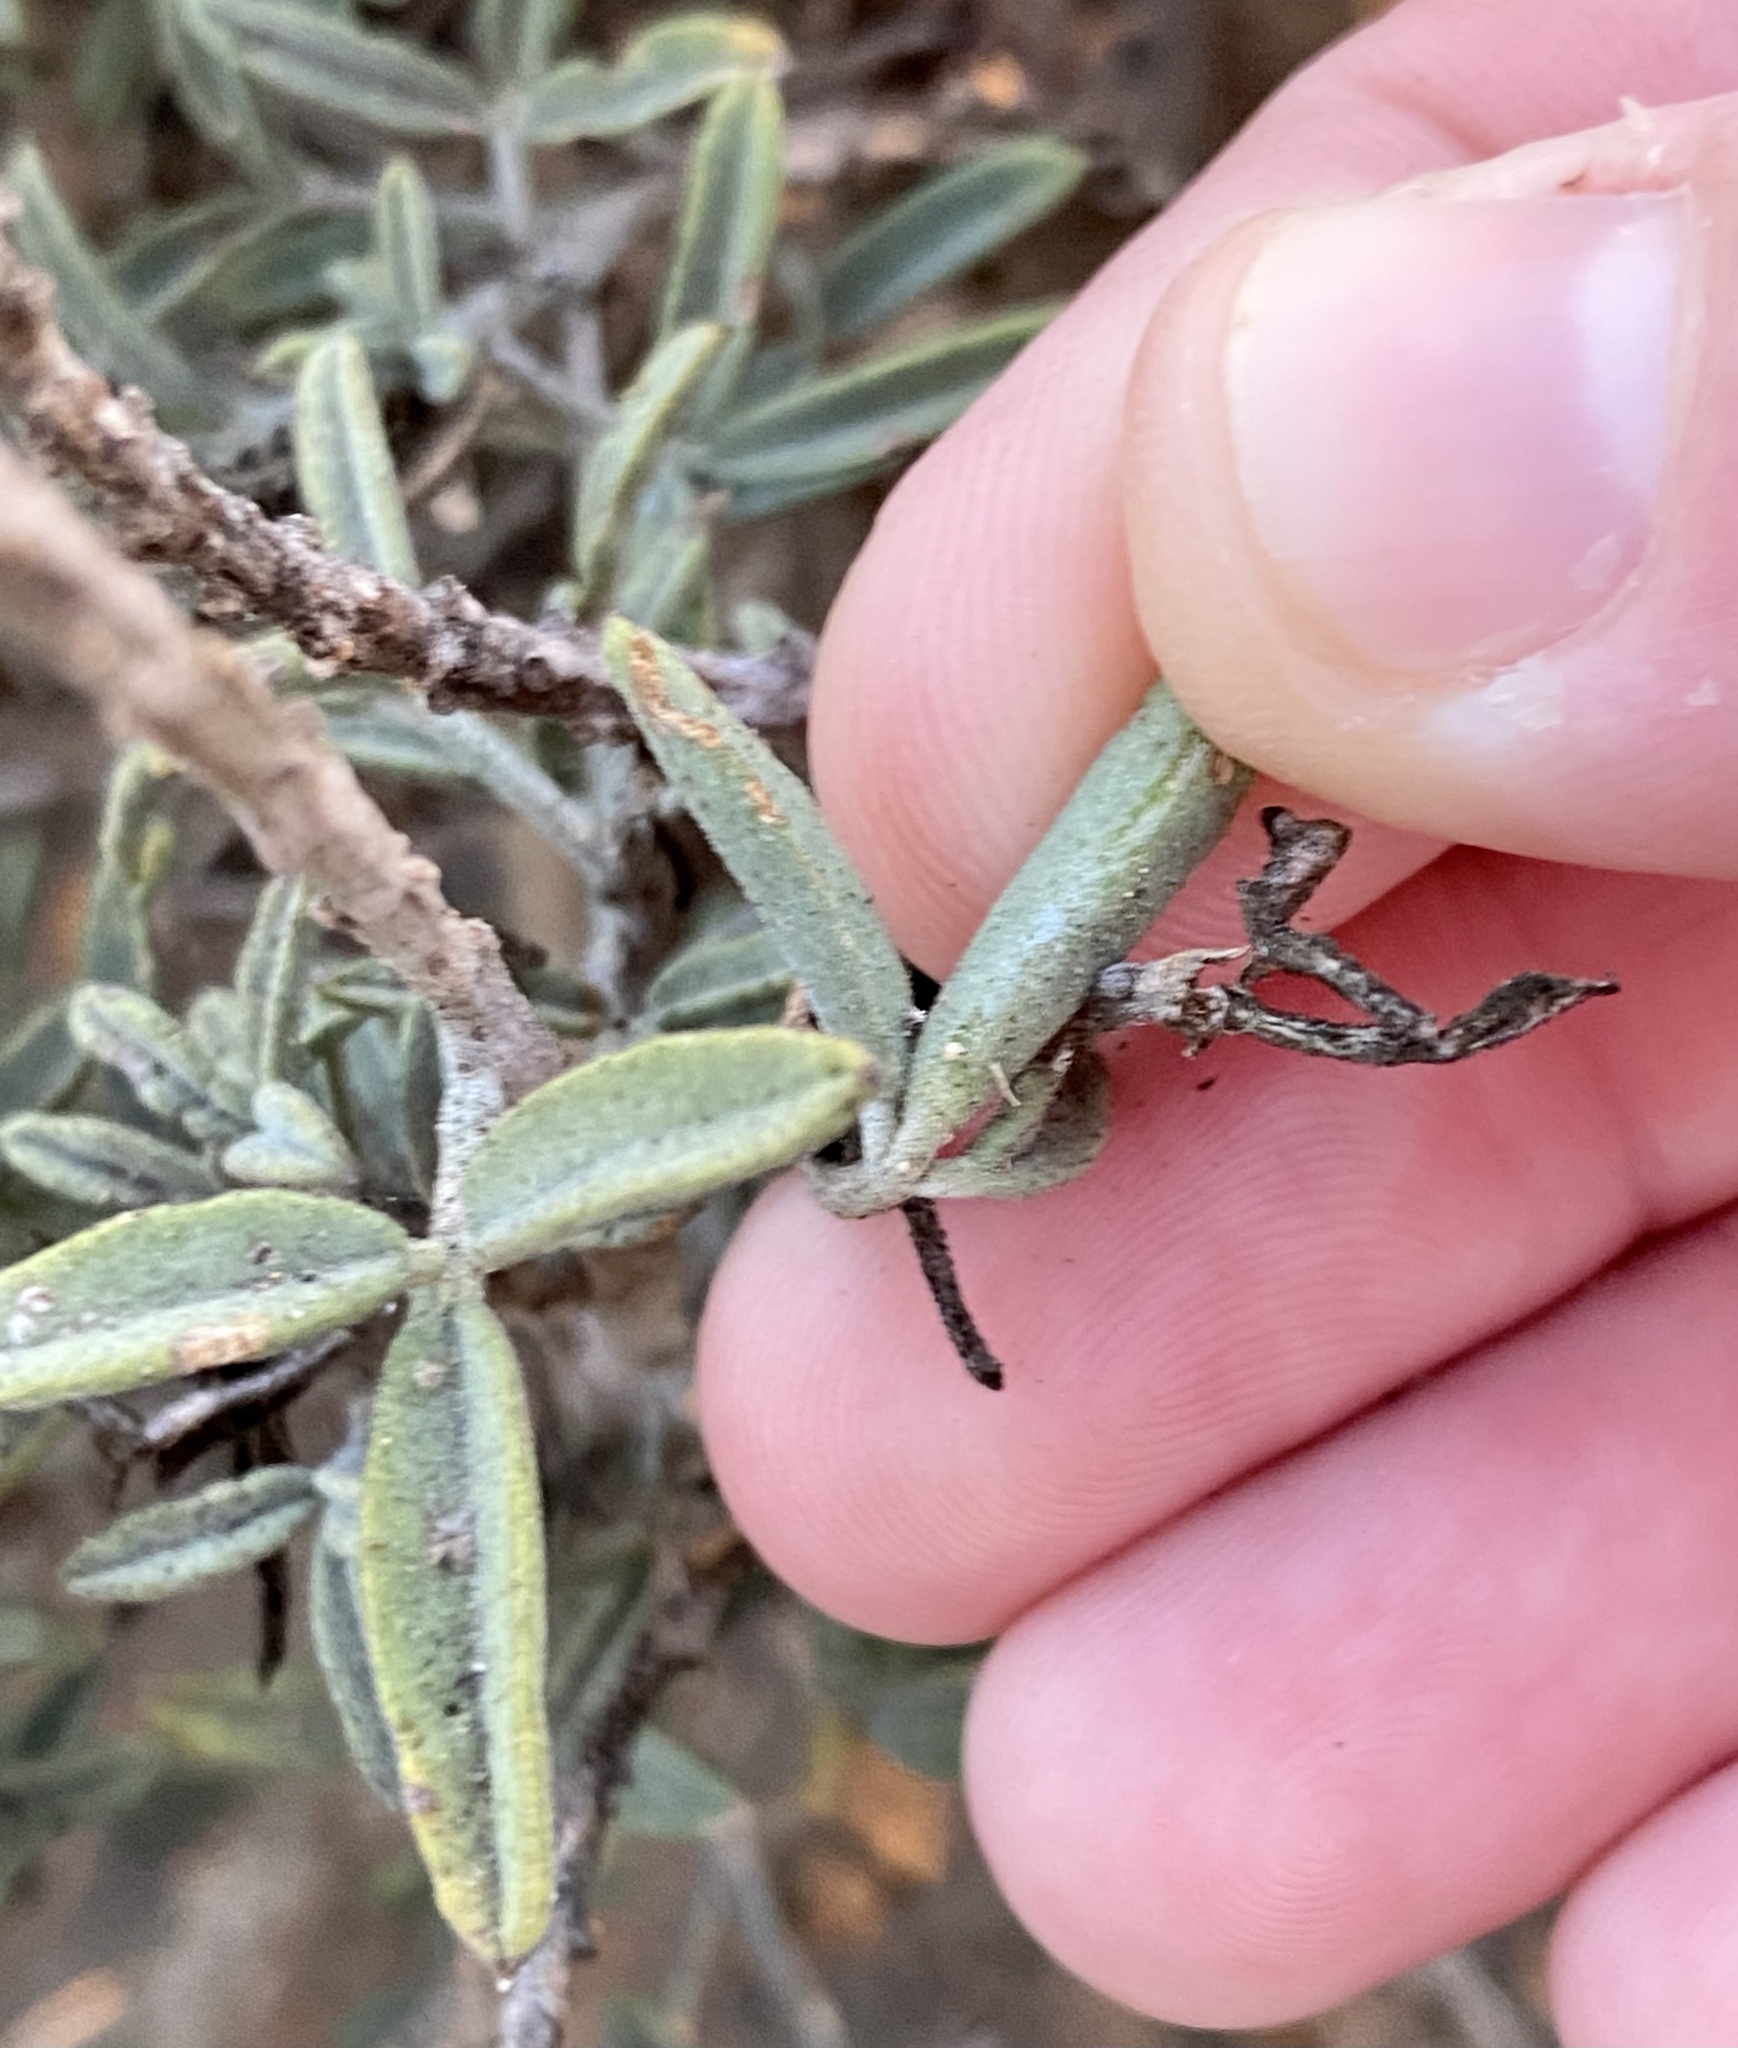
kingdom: Plantae
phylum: Tracheophyta
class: Magnoliopsida
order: Brassicales
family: Cleomaceae
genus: Cleomella
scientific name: Cleomella arborea
